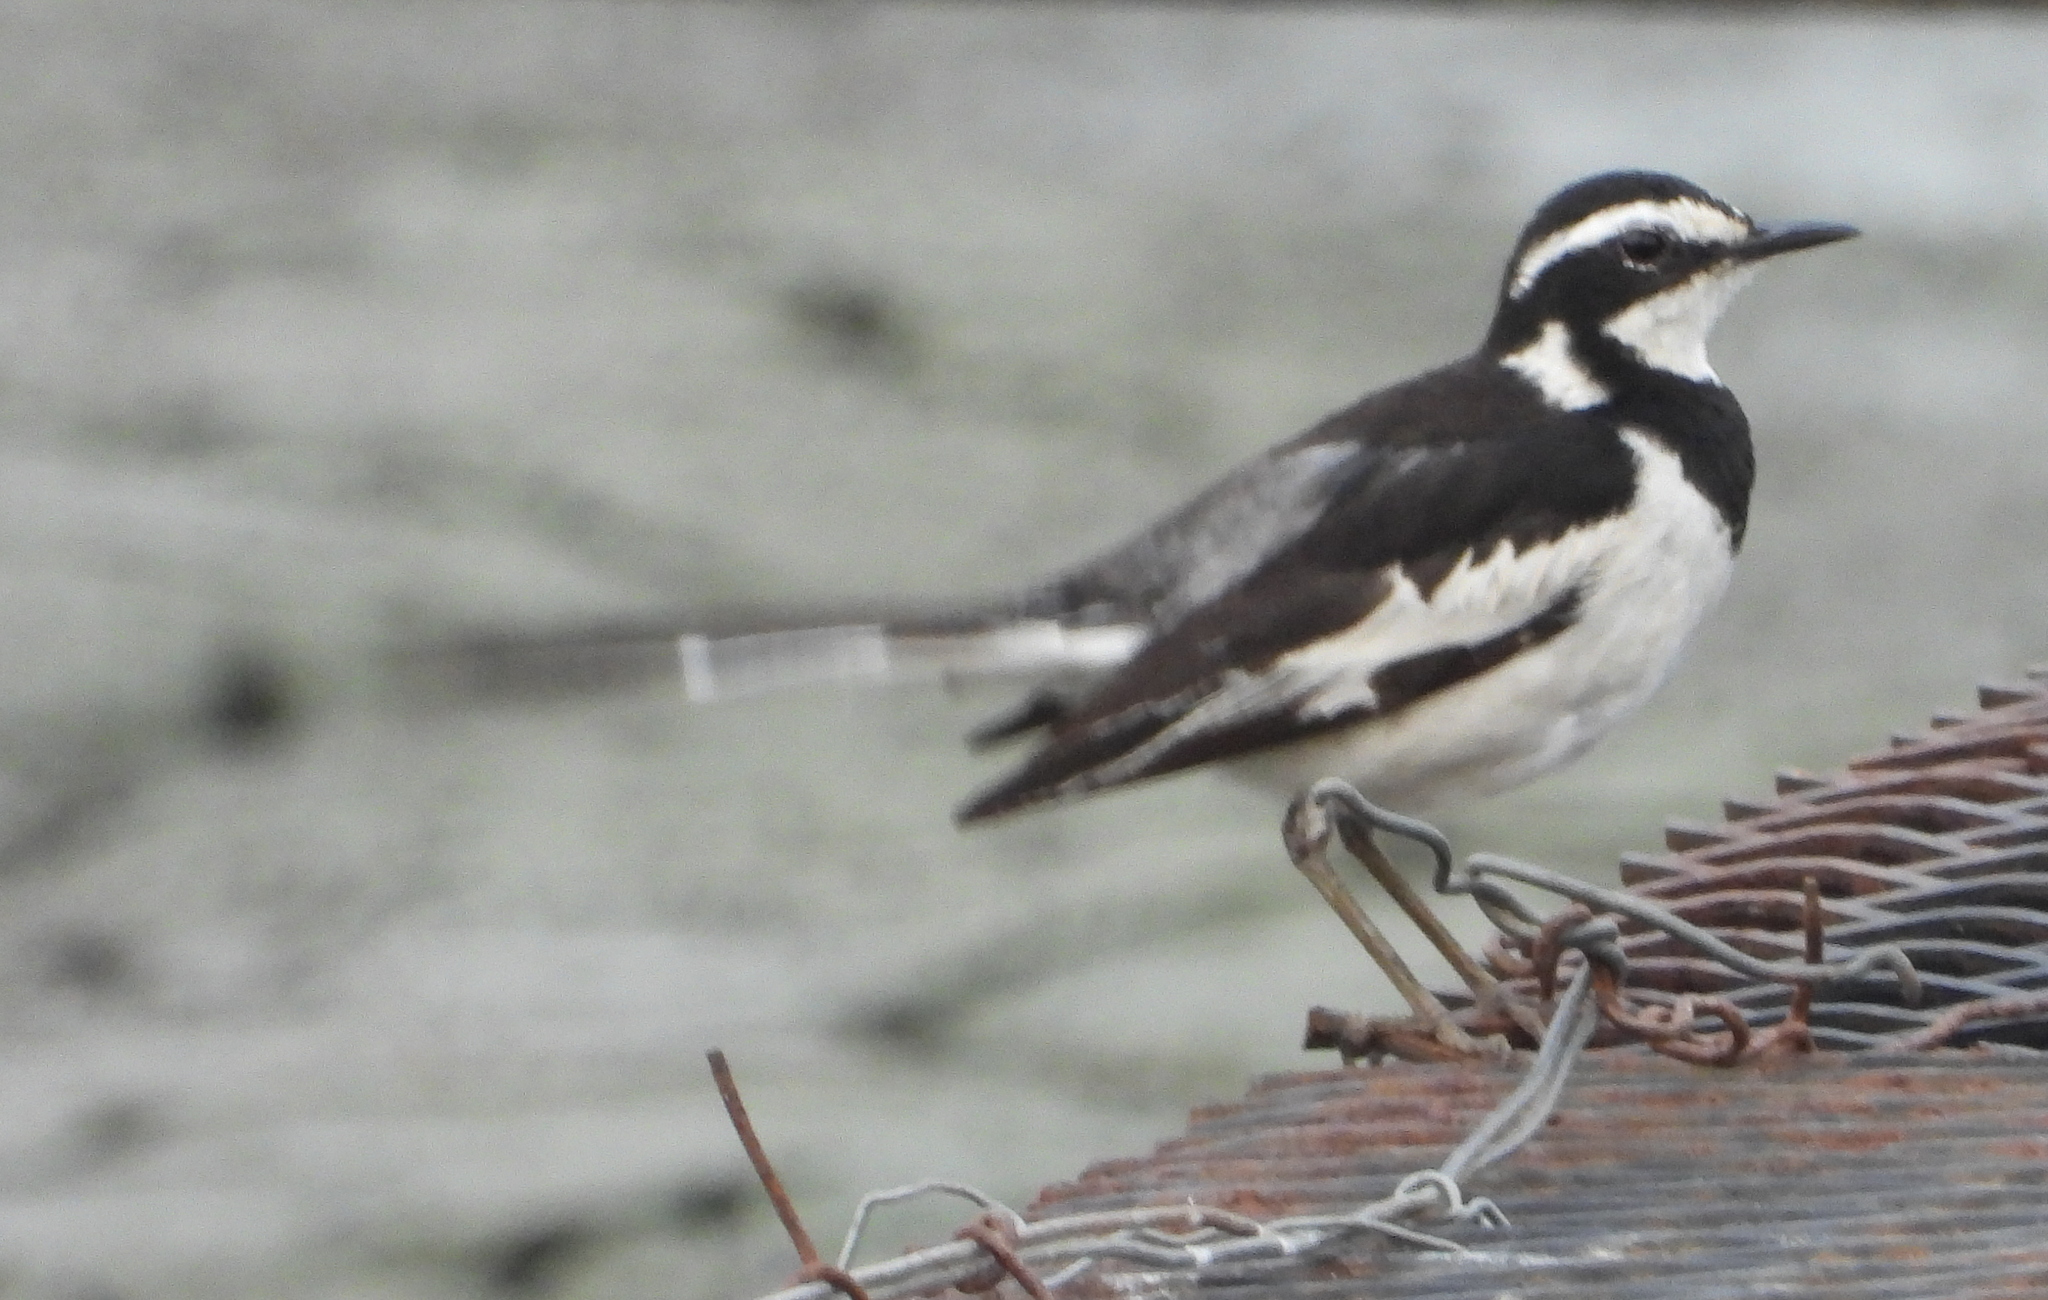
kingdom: Animalia
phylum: Chordata
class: Aves
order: Passeriformes
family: Motacillidae
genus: Motacilla
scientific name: Motacilla aguimp
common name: African pied wagtail
